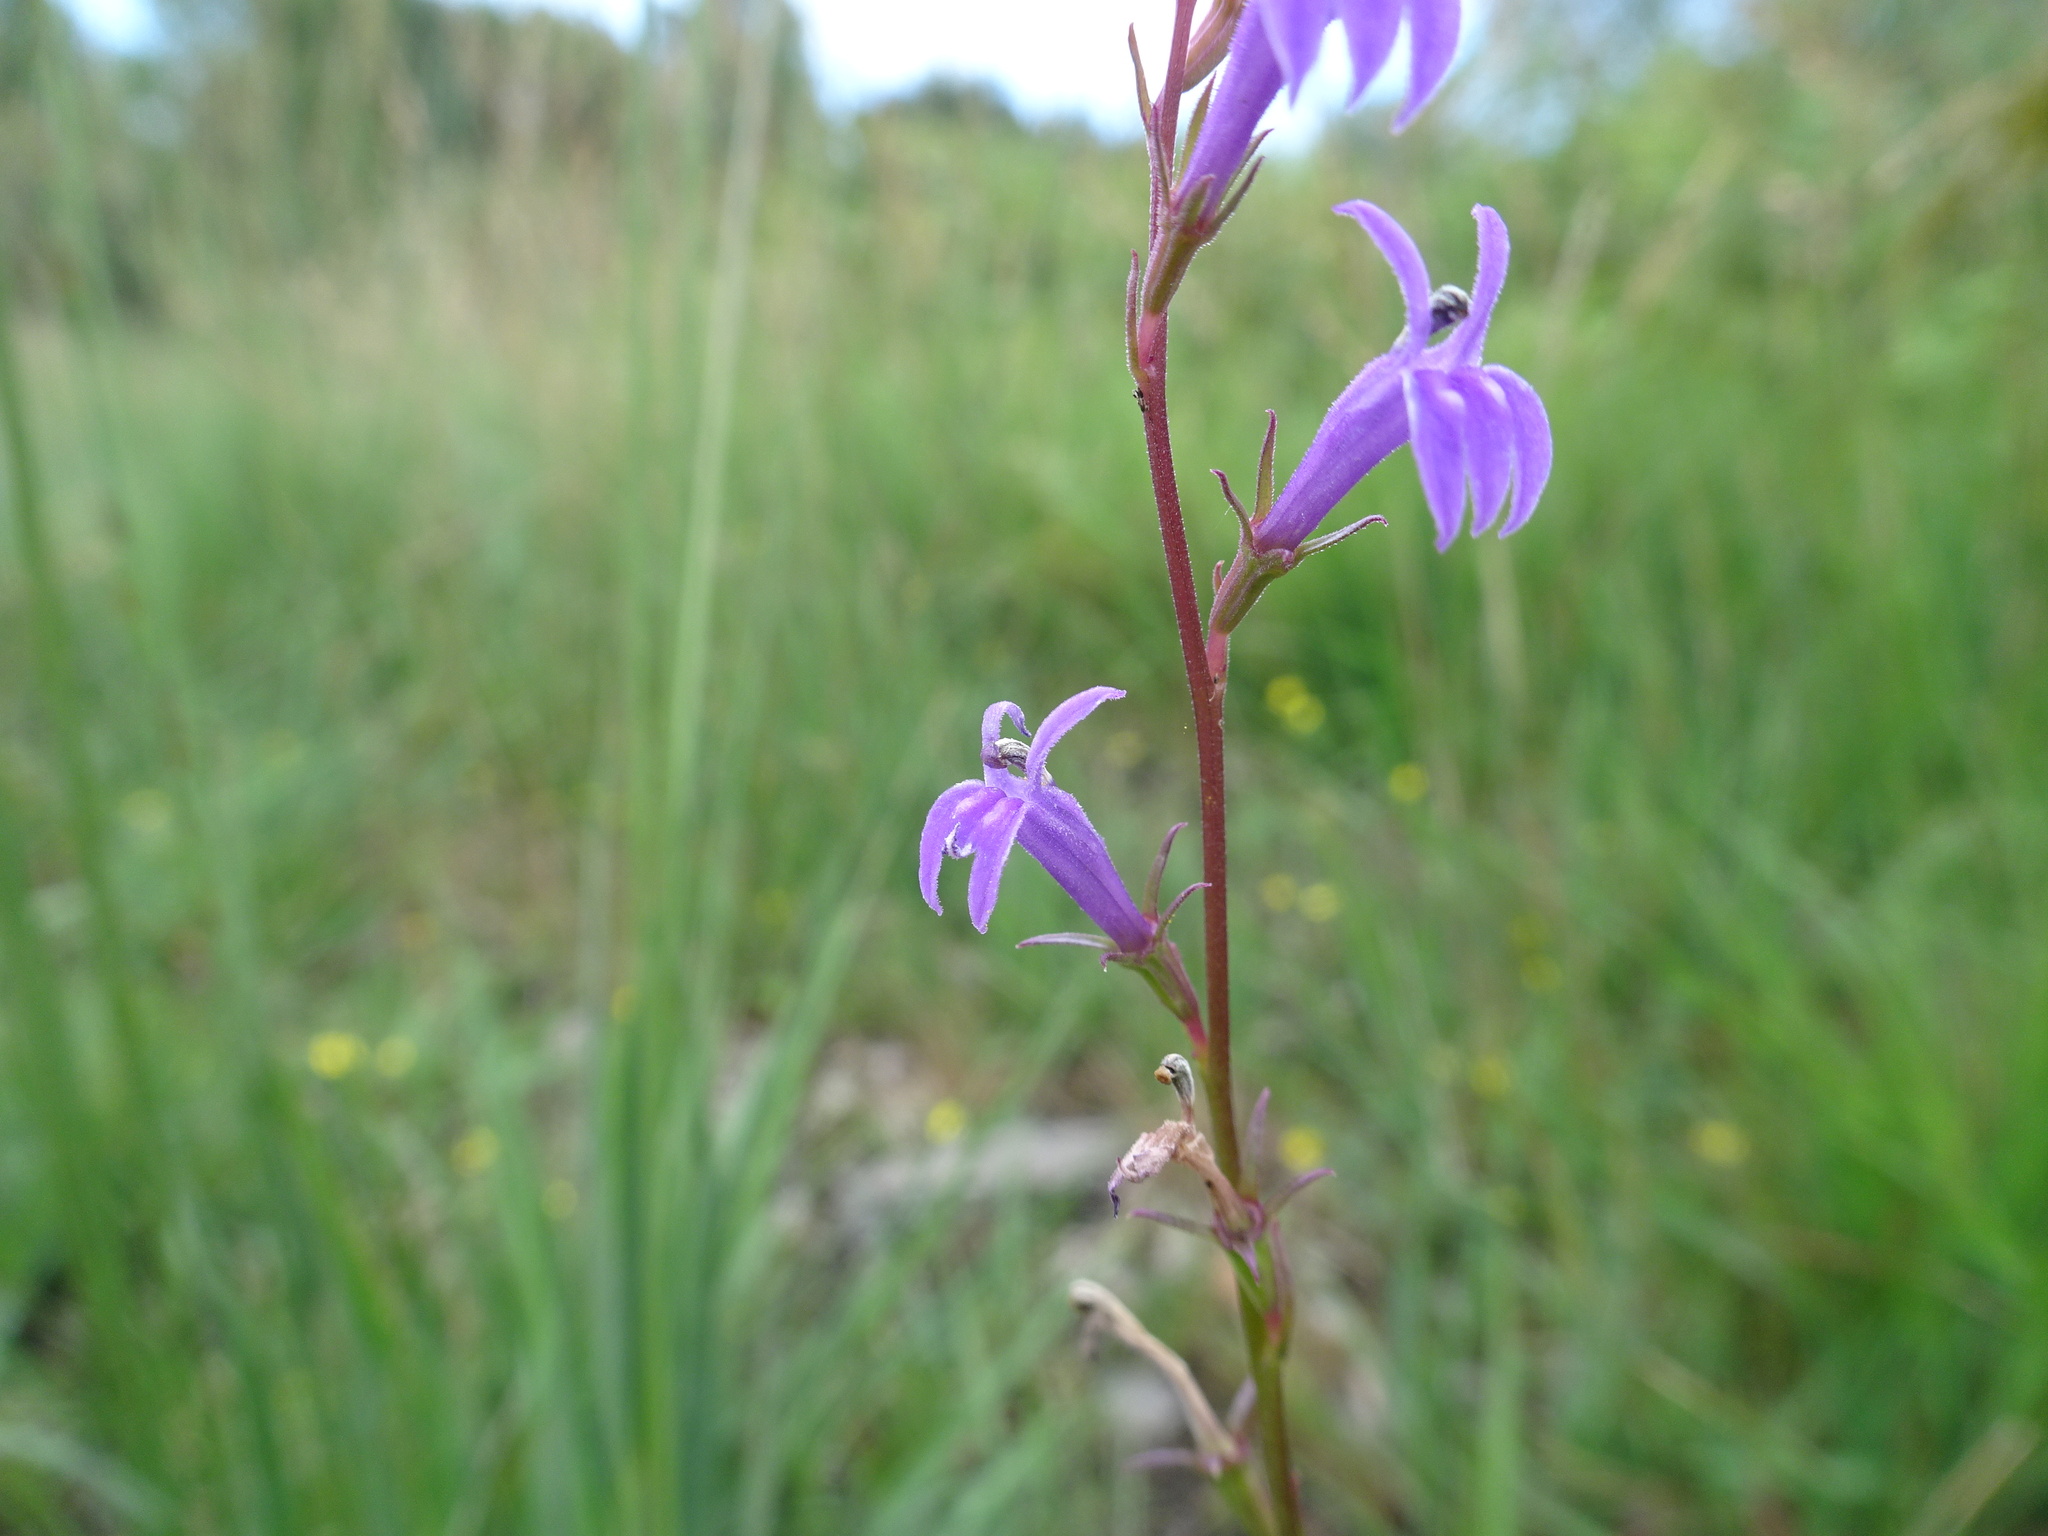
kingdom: Plantae
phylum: Tracheophyta
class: Magnoliopsida
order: Asterales
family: Campanulaceae
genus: Lobelia
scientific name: Lobelia urens
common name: Heath lobelia
